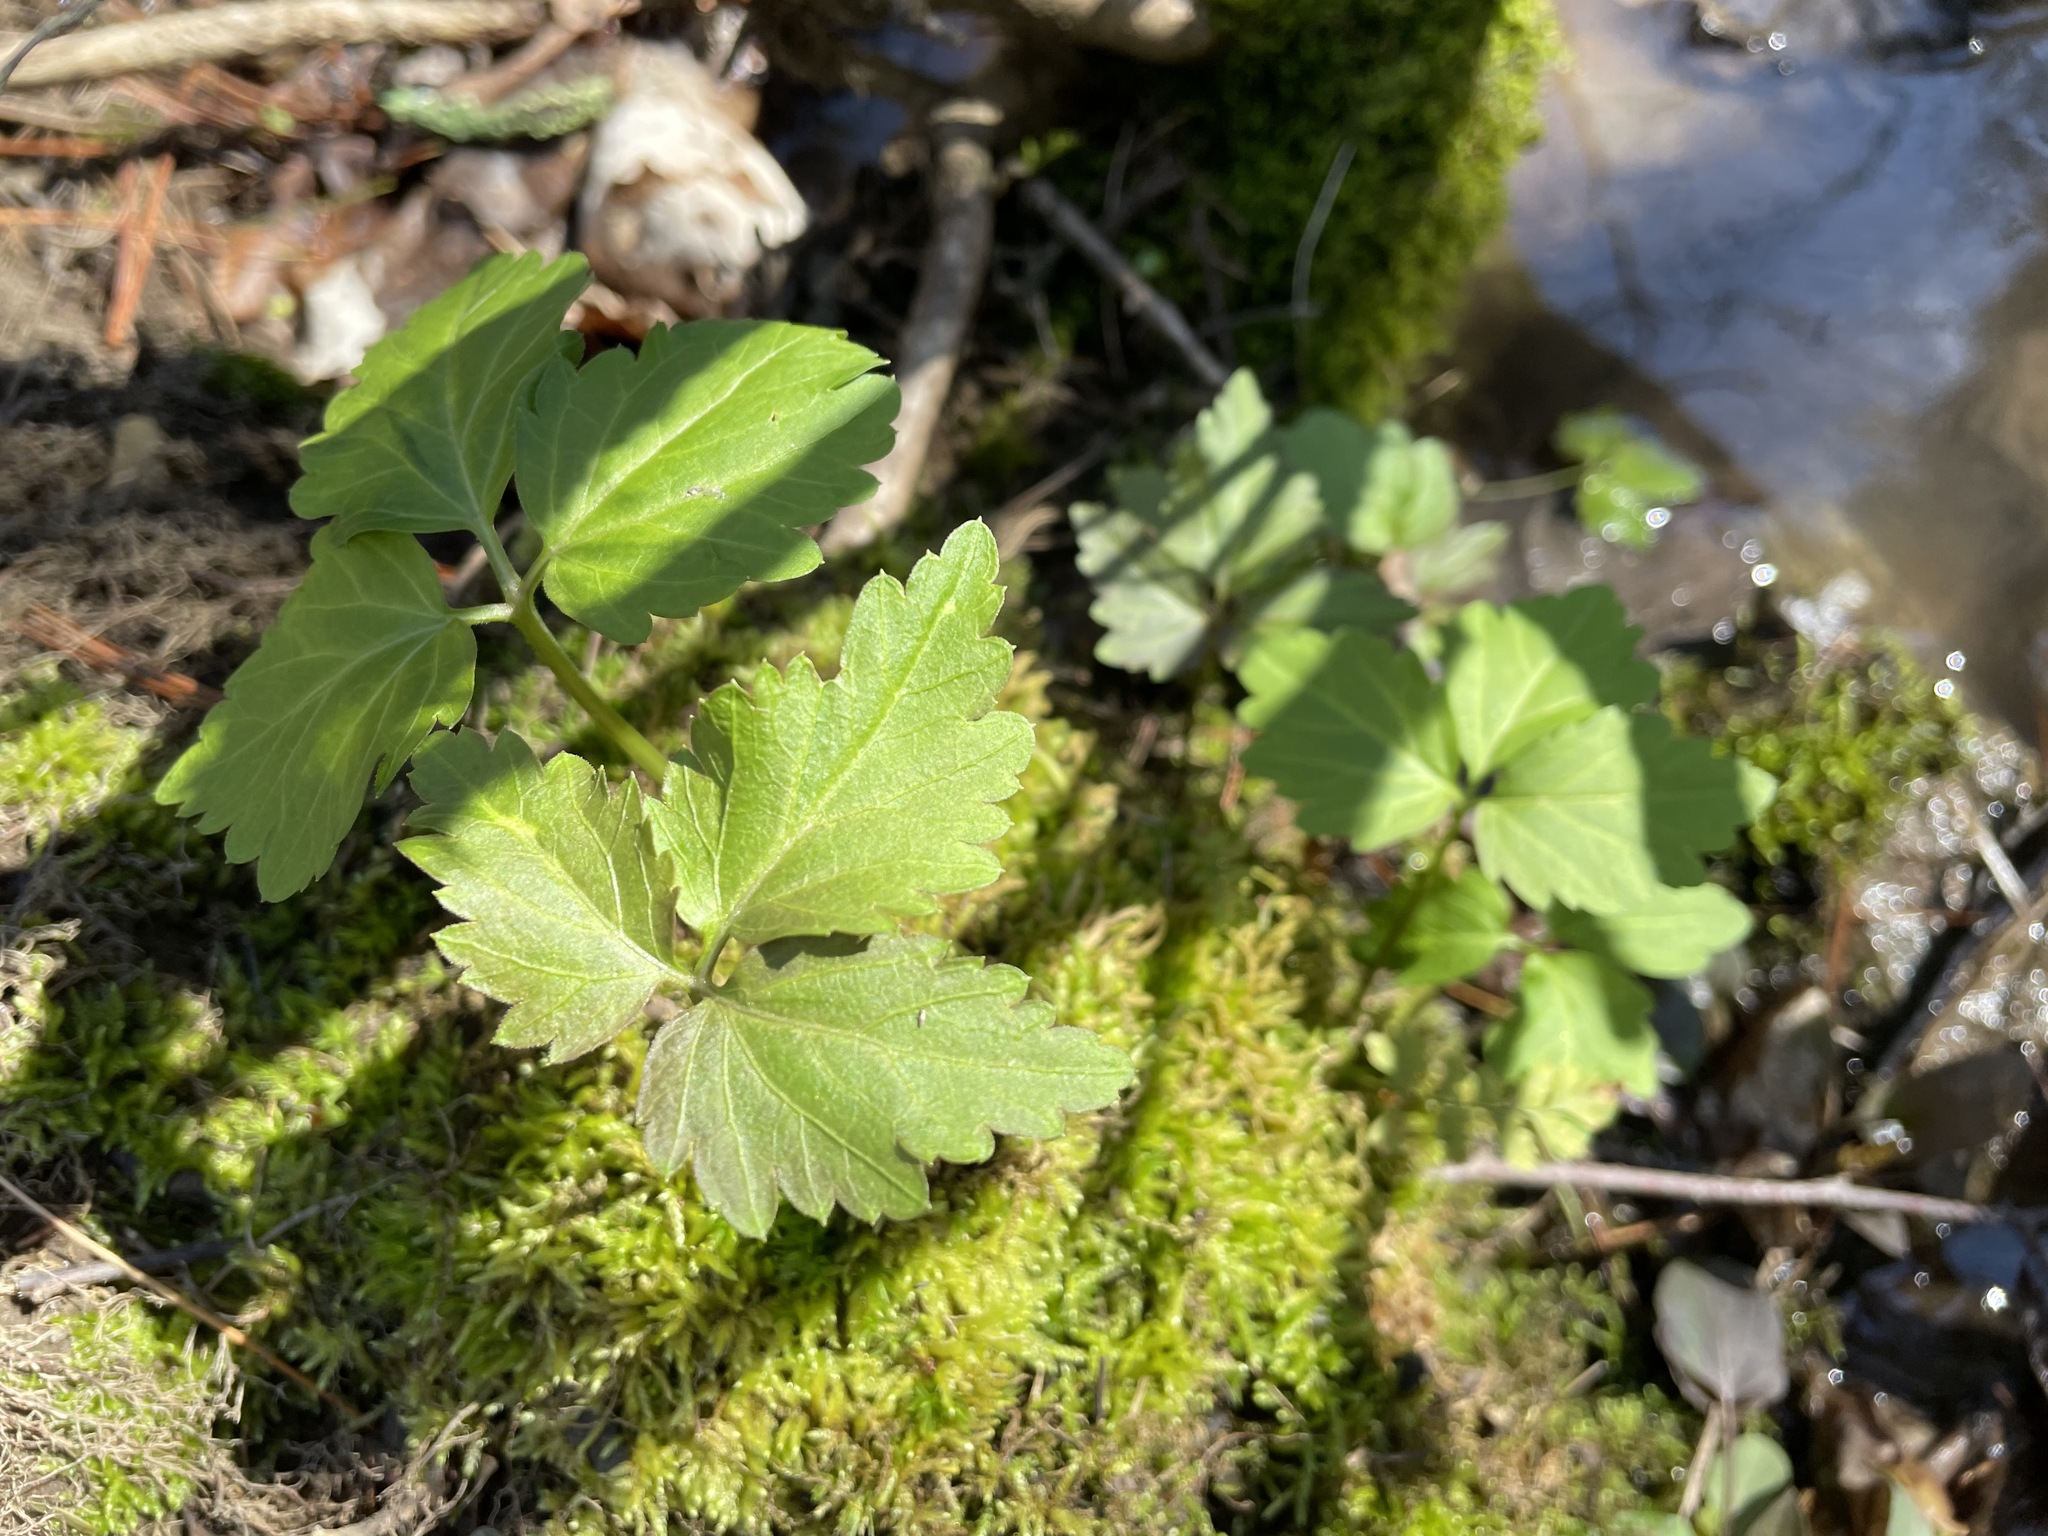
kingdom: Plantae
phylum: Tracheophyta
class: Magnoliopsida
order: Brassicales
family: Brassicaceae
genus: Cardamine
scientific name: Cardamine diphylla
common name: Broad-leaved toothwort
